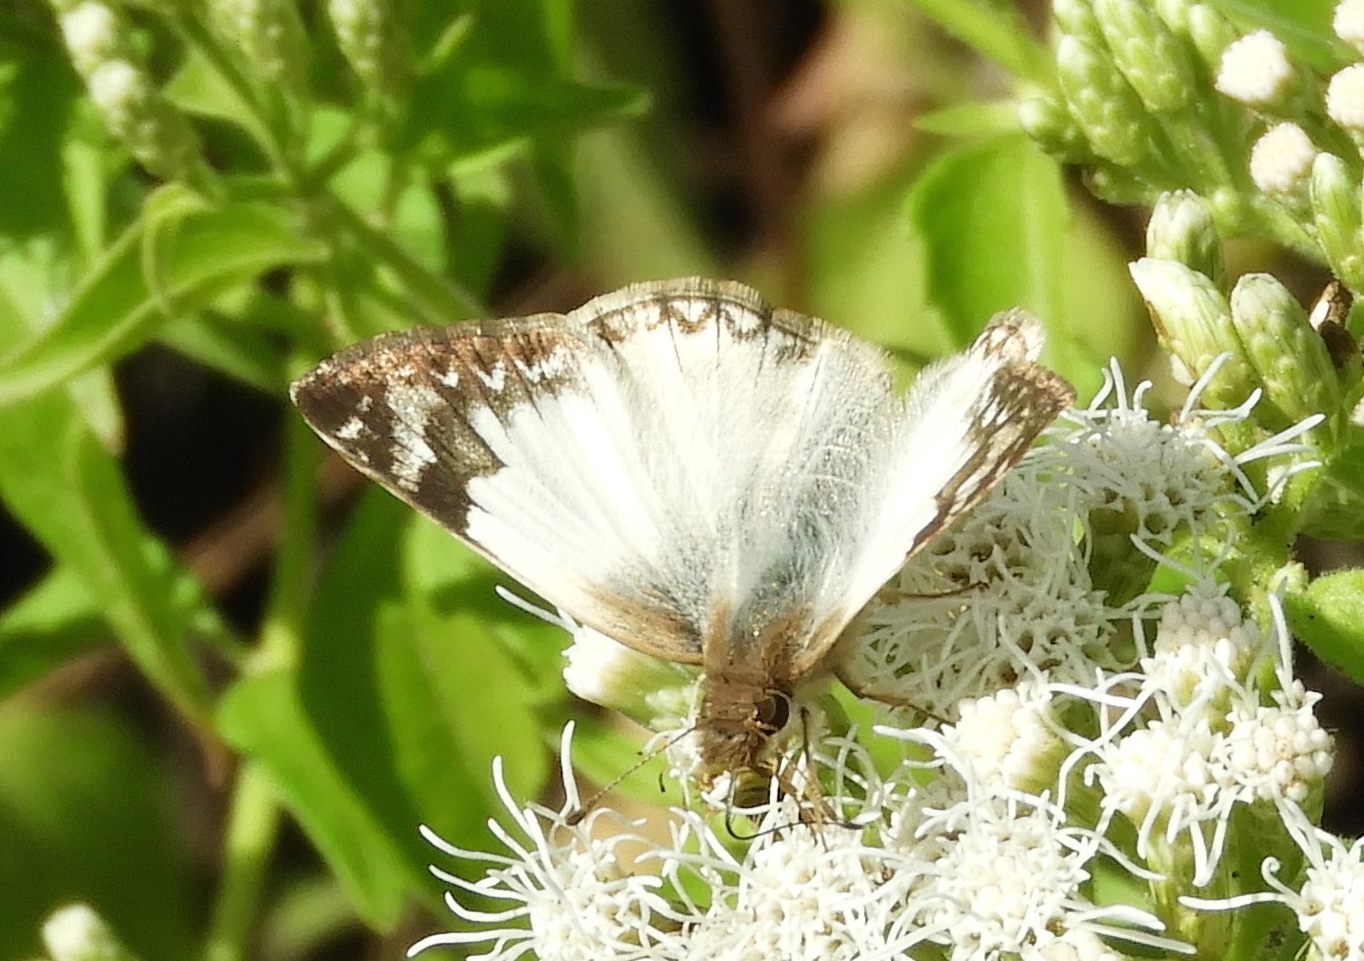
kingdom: Animalia
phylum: Arthropoda
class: Insecta
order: Lepidoptera
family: Hesperiidae
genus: Heliopetes
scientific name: Heliopetes laviana
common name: Laviana white-skipper
